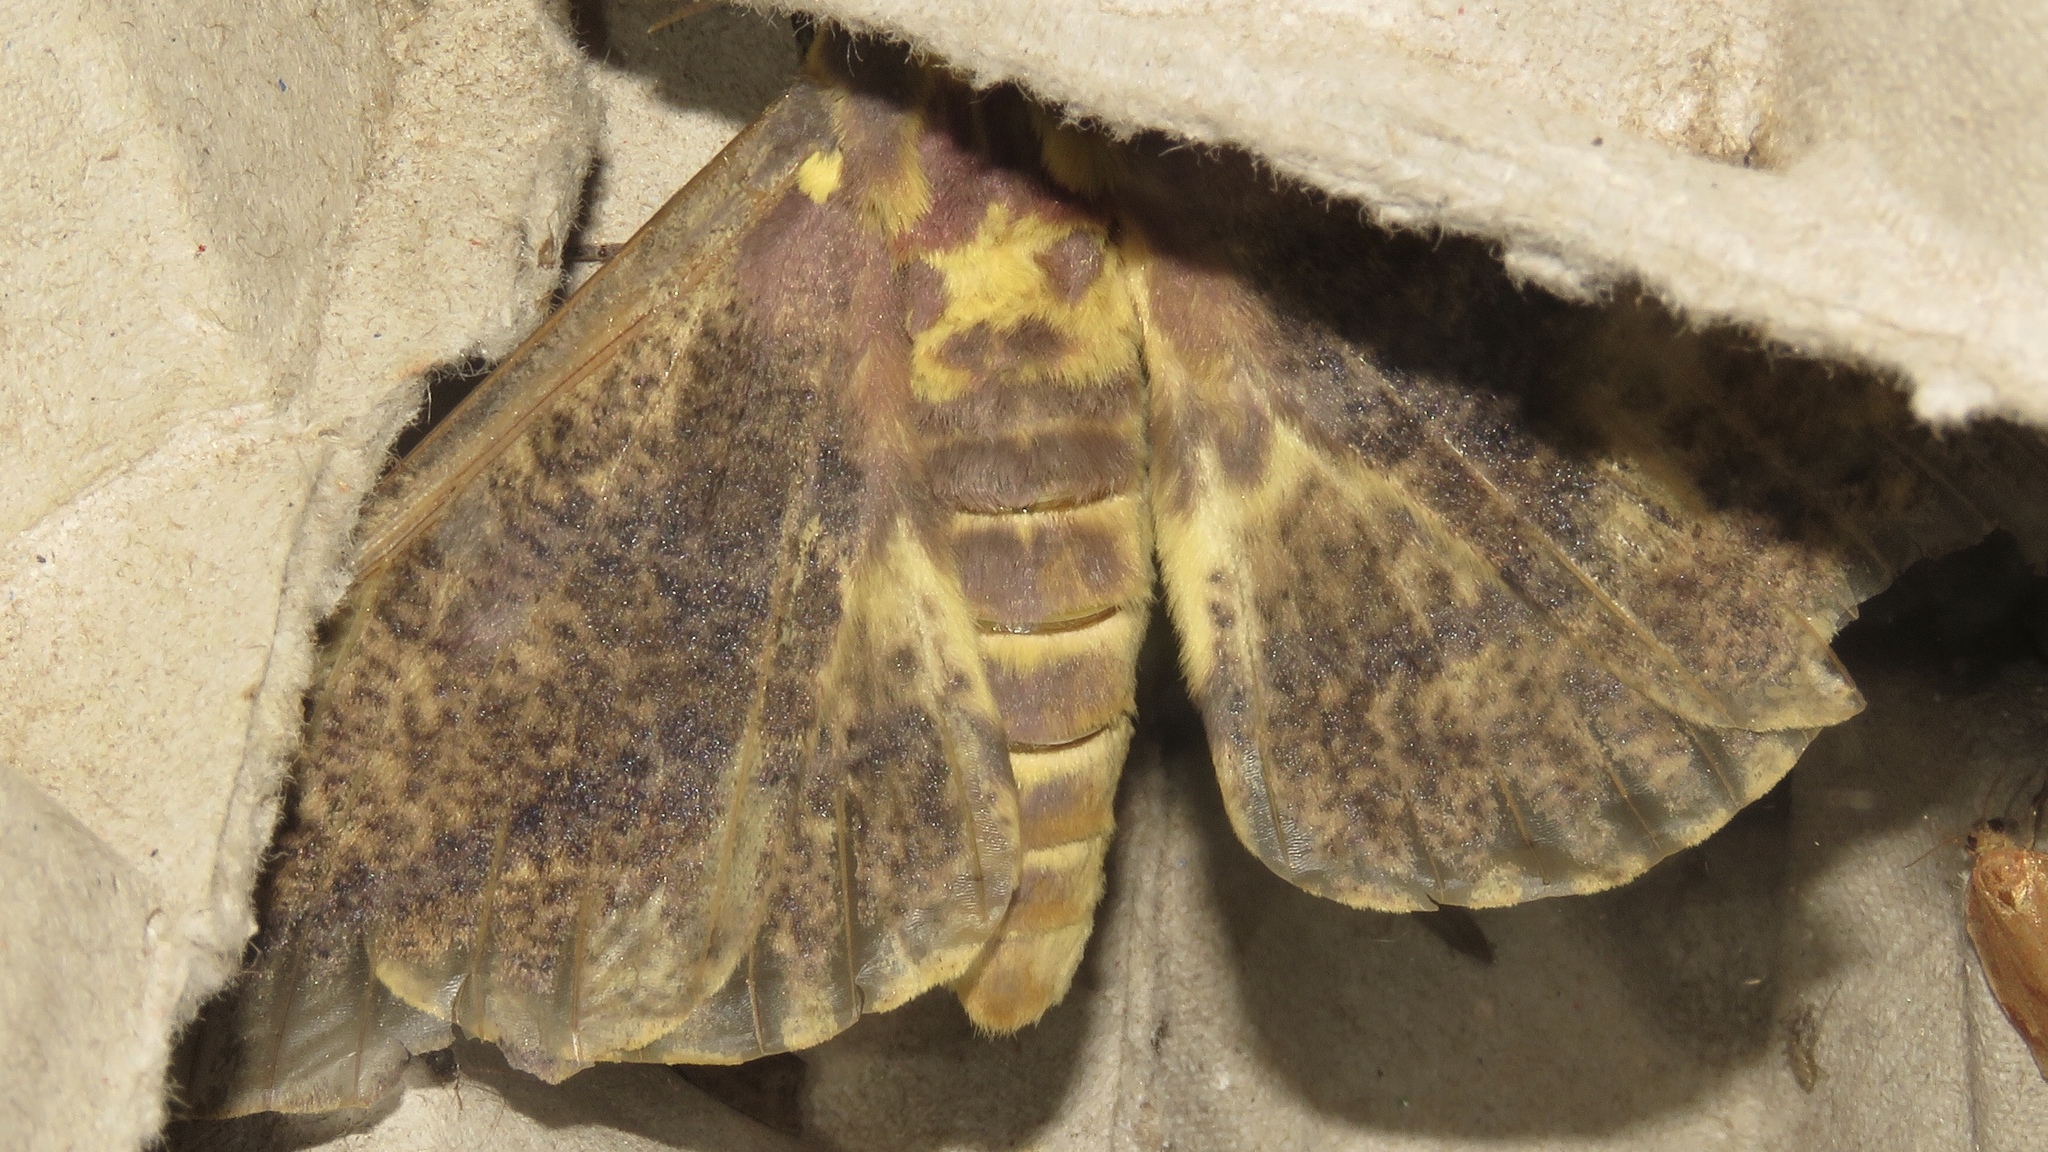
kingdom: Animalia
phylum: Arthropoda
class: Insecta
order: Lepidoptera
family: Saturniidae
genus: Eacles
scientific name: Eacles
